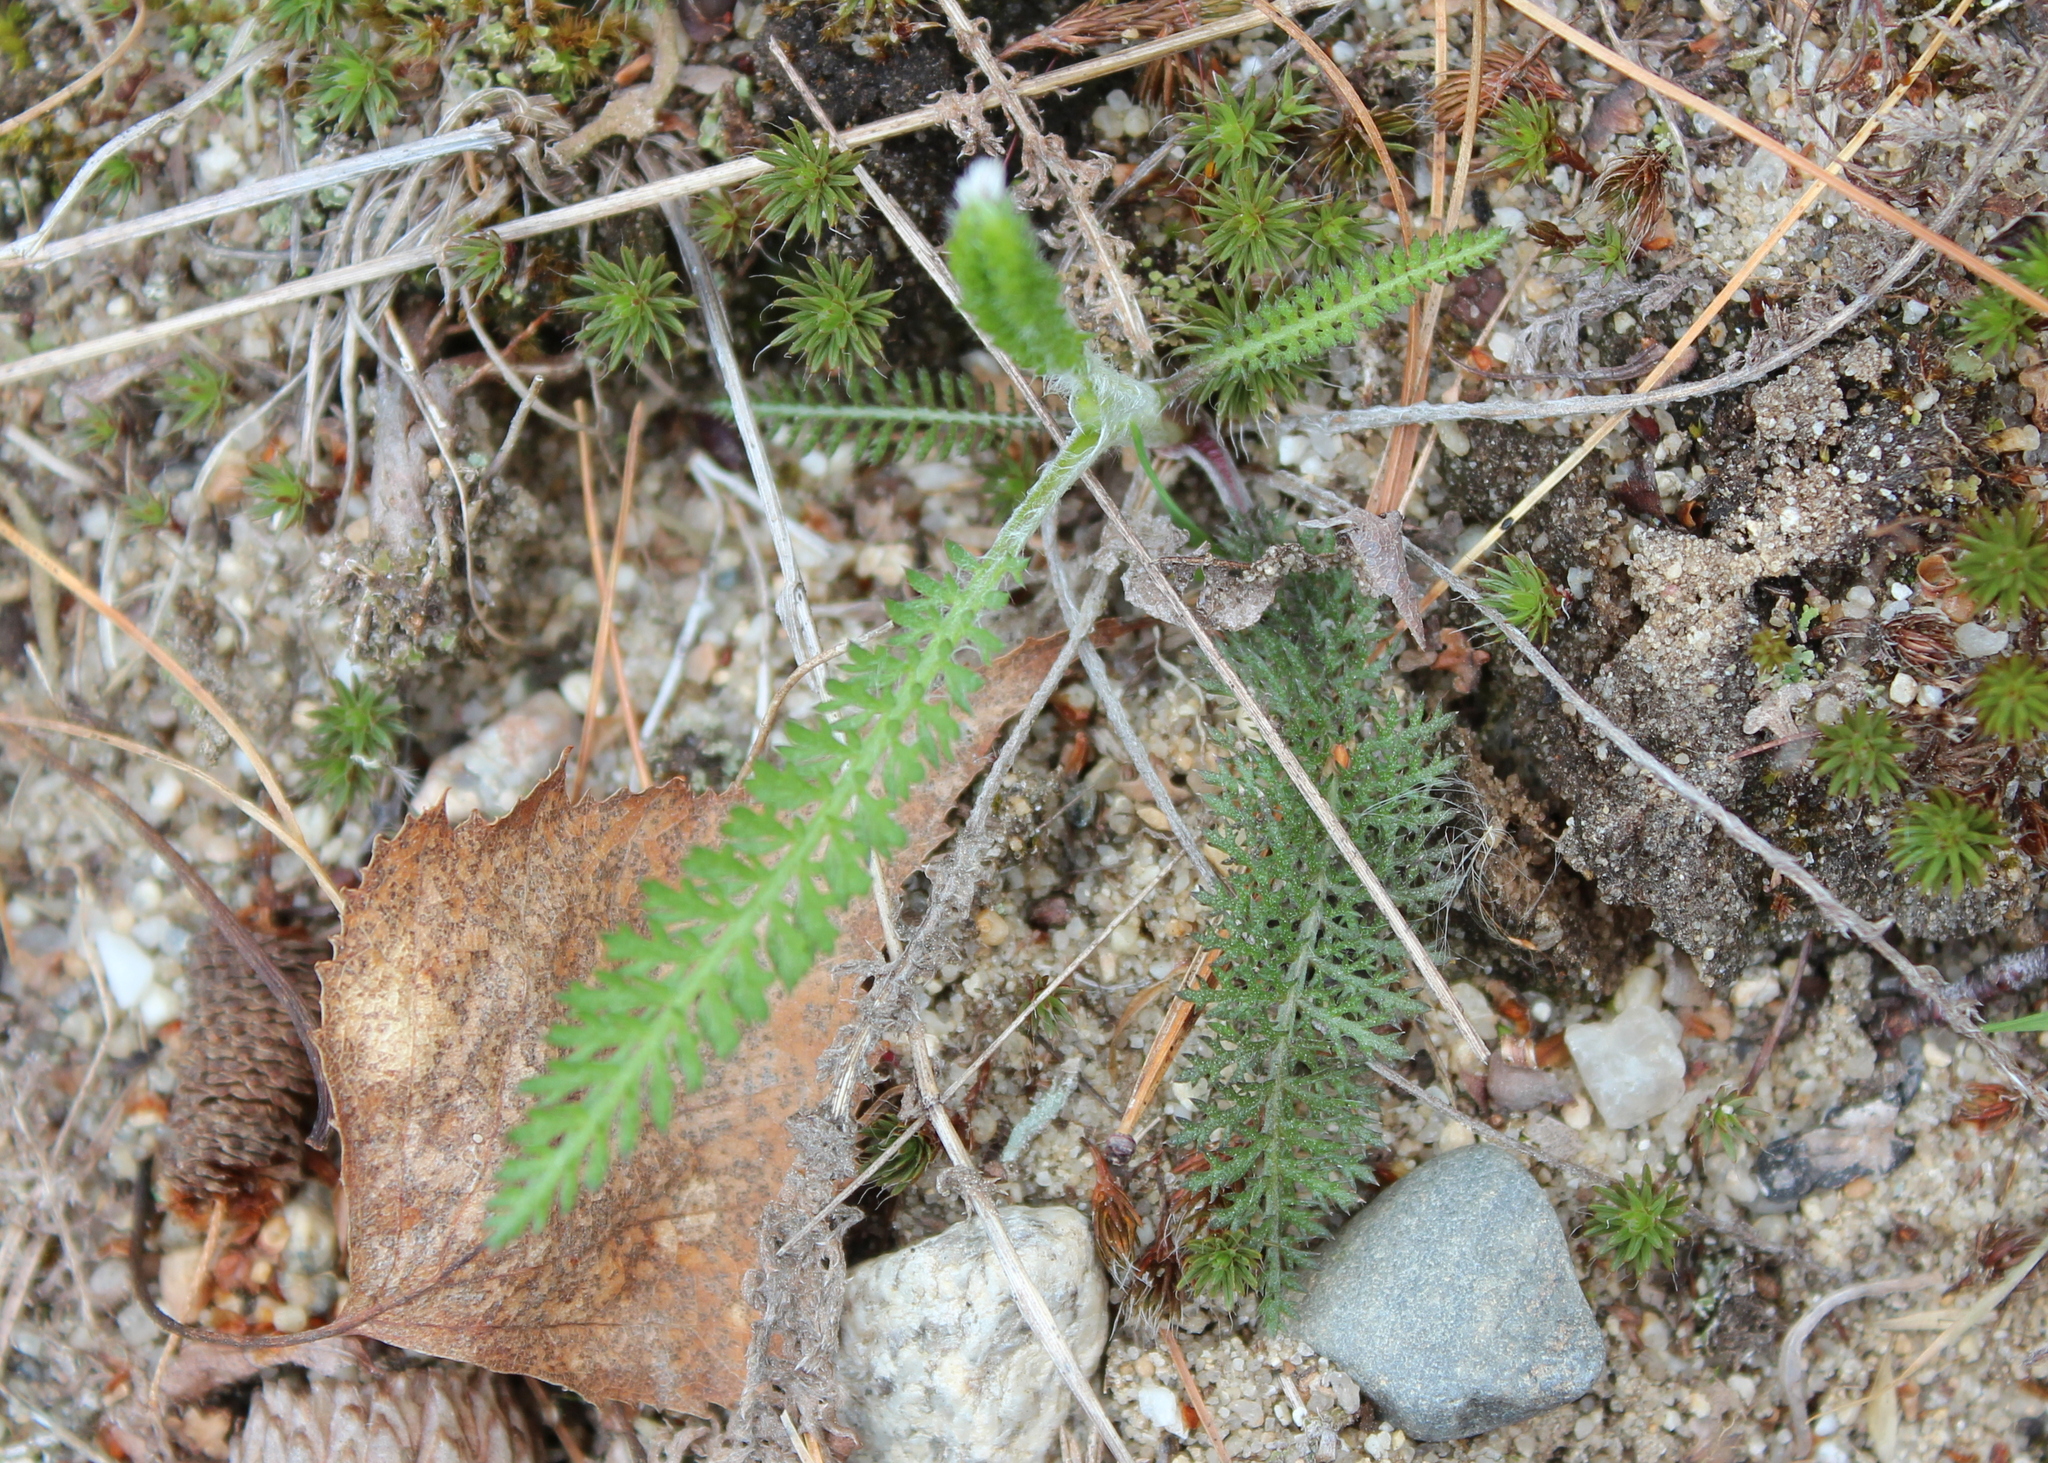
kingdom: Plantae
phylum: Tracheophyta
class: Magnoliopsida
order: Asterales
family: Asteraceae
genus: Achillea
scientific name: Achillea millefolium
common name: Yarrow
